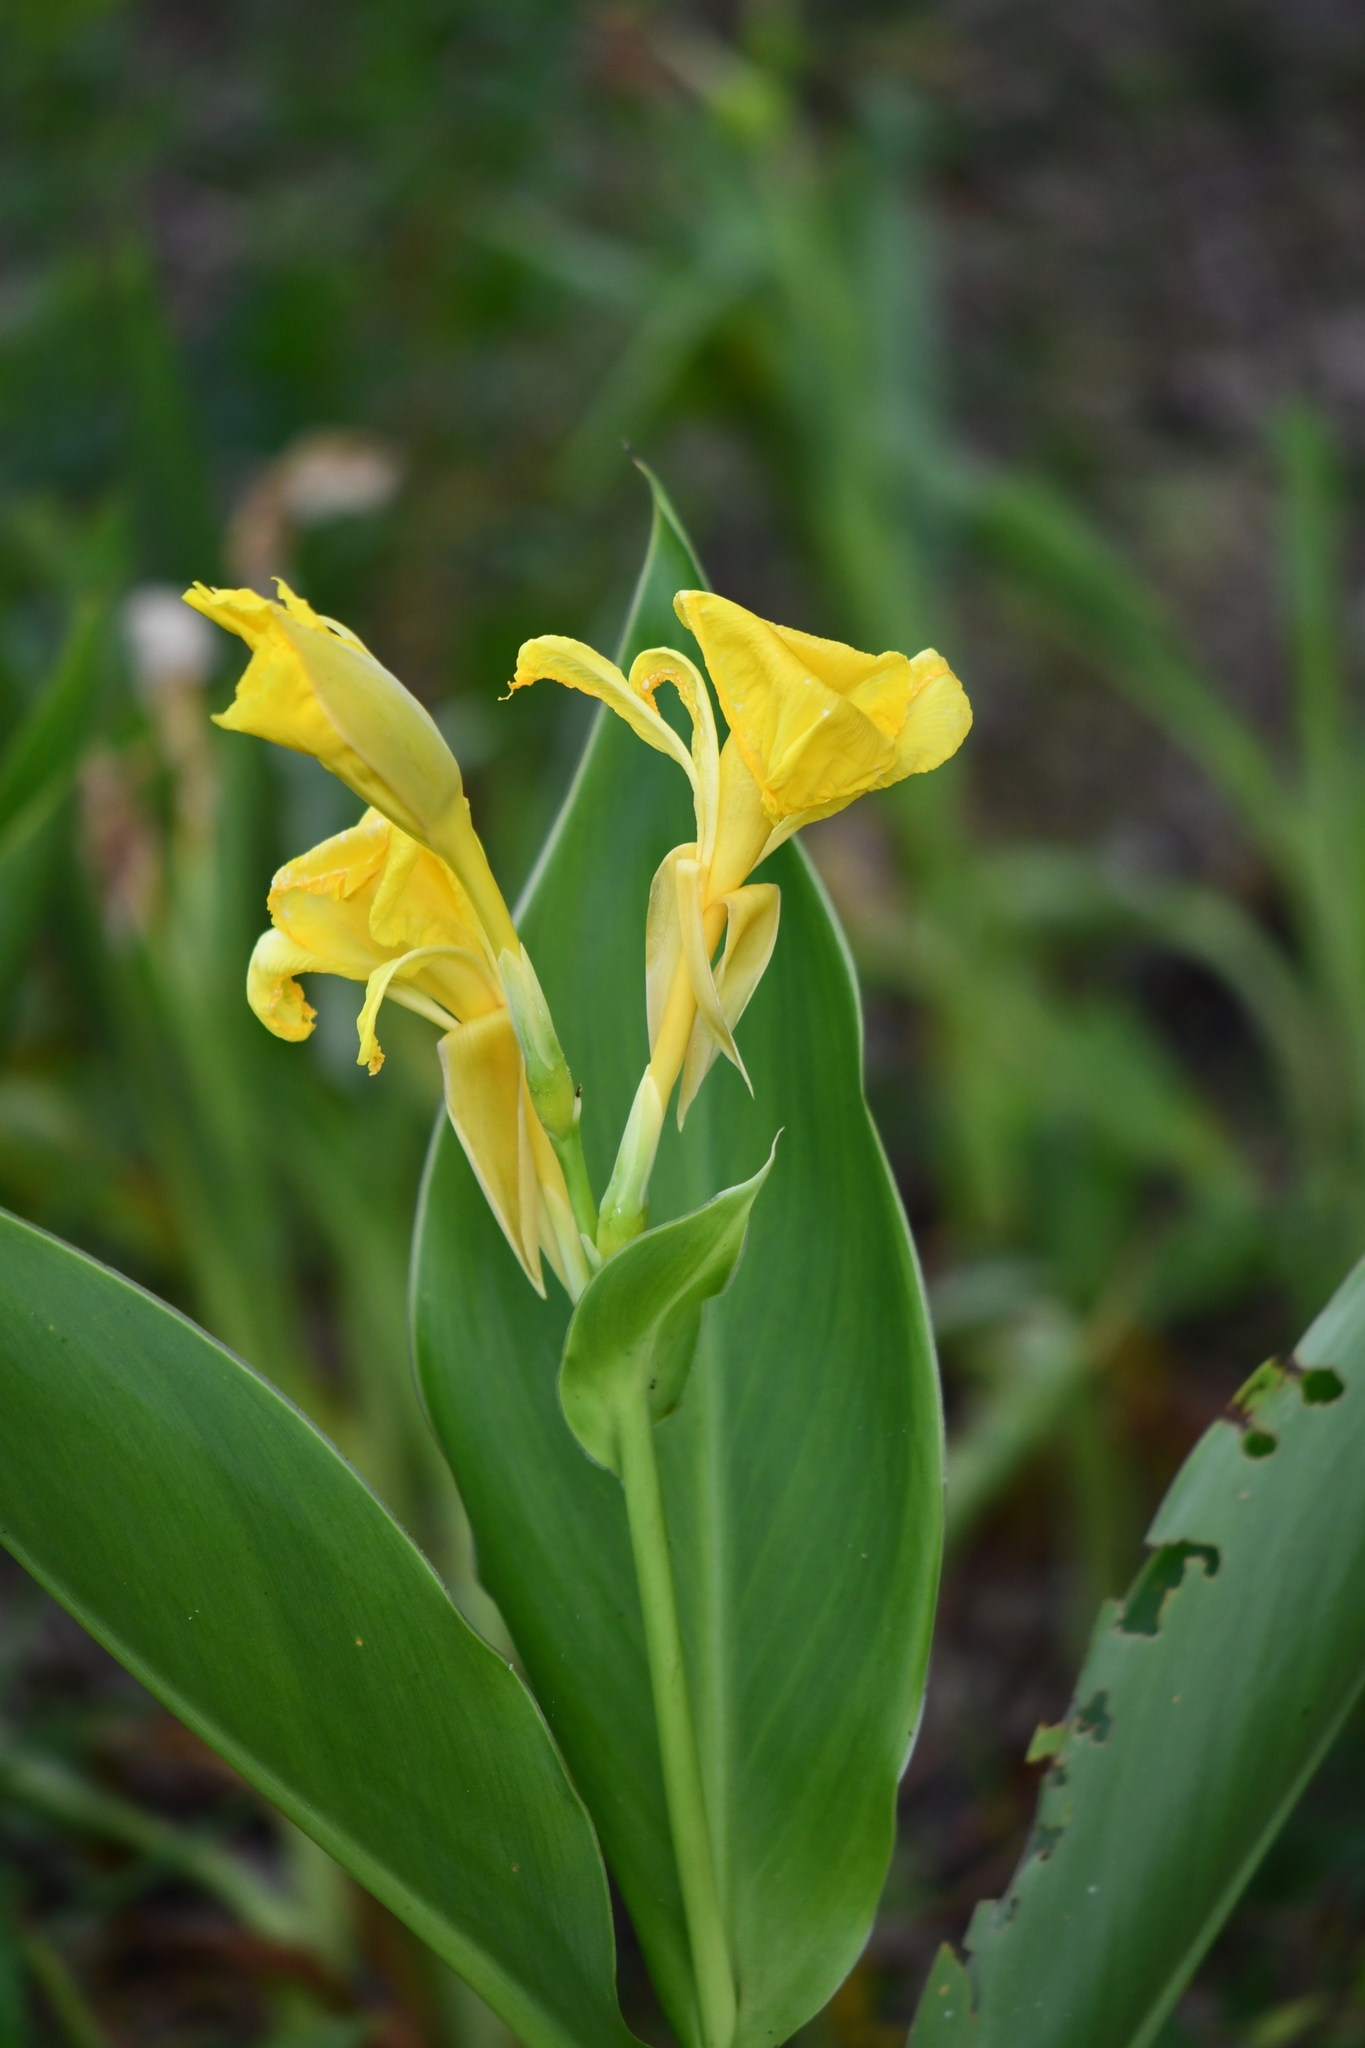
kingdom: Plantae
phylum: Tracheophyta
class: Liliopsida
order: Zingiberales
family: Cannaceae
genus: Canna
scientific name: Canna flaccida
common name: Bandana-of-the-everglades
